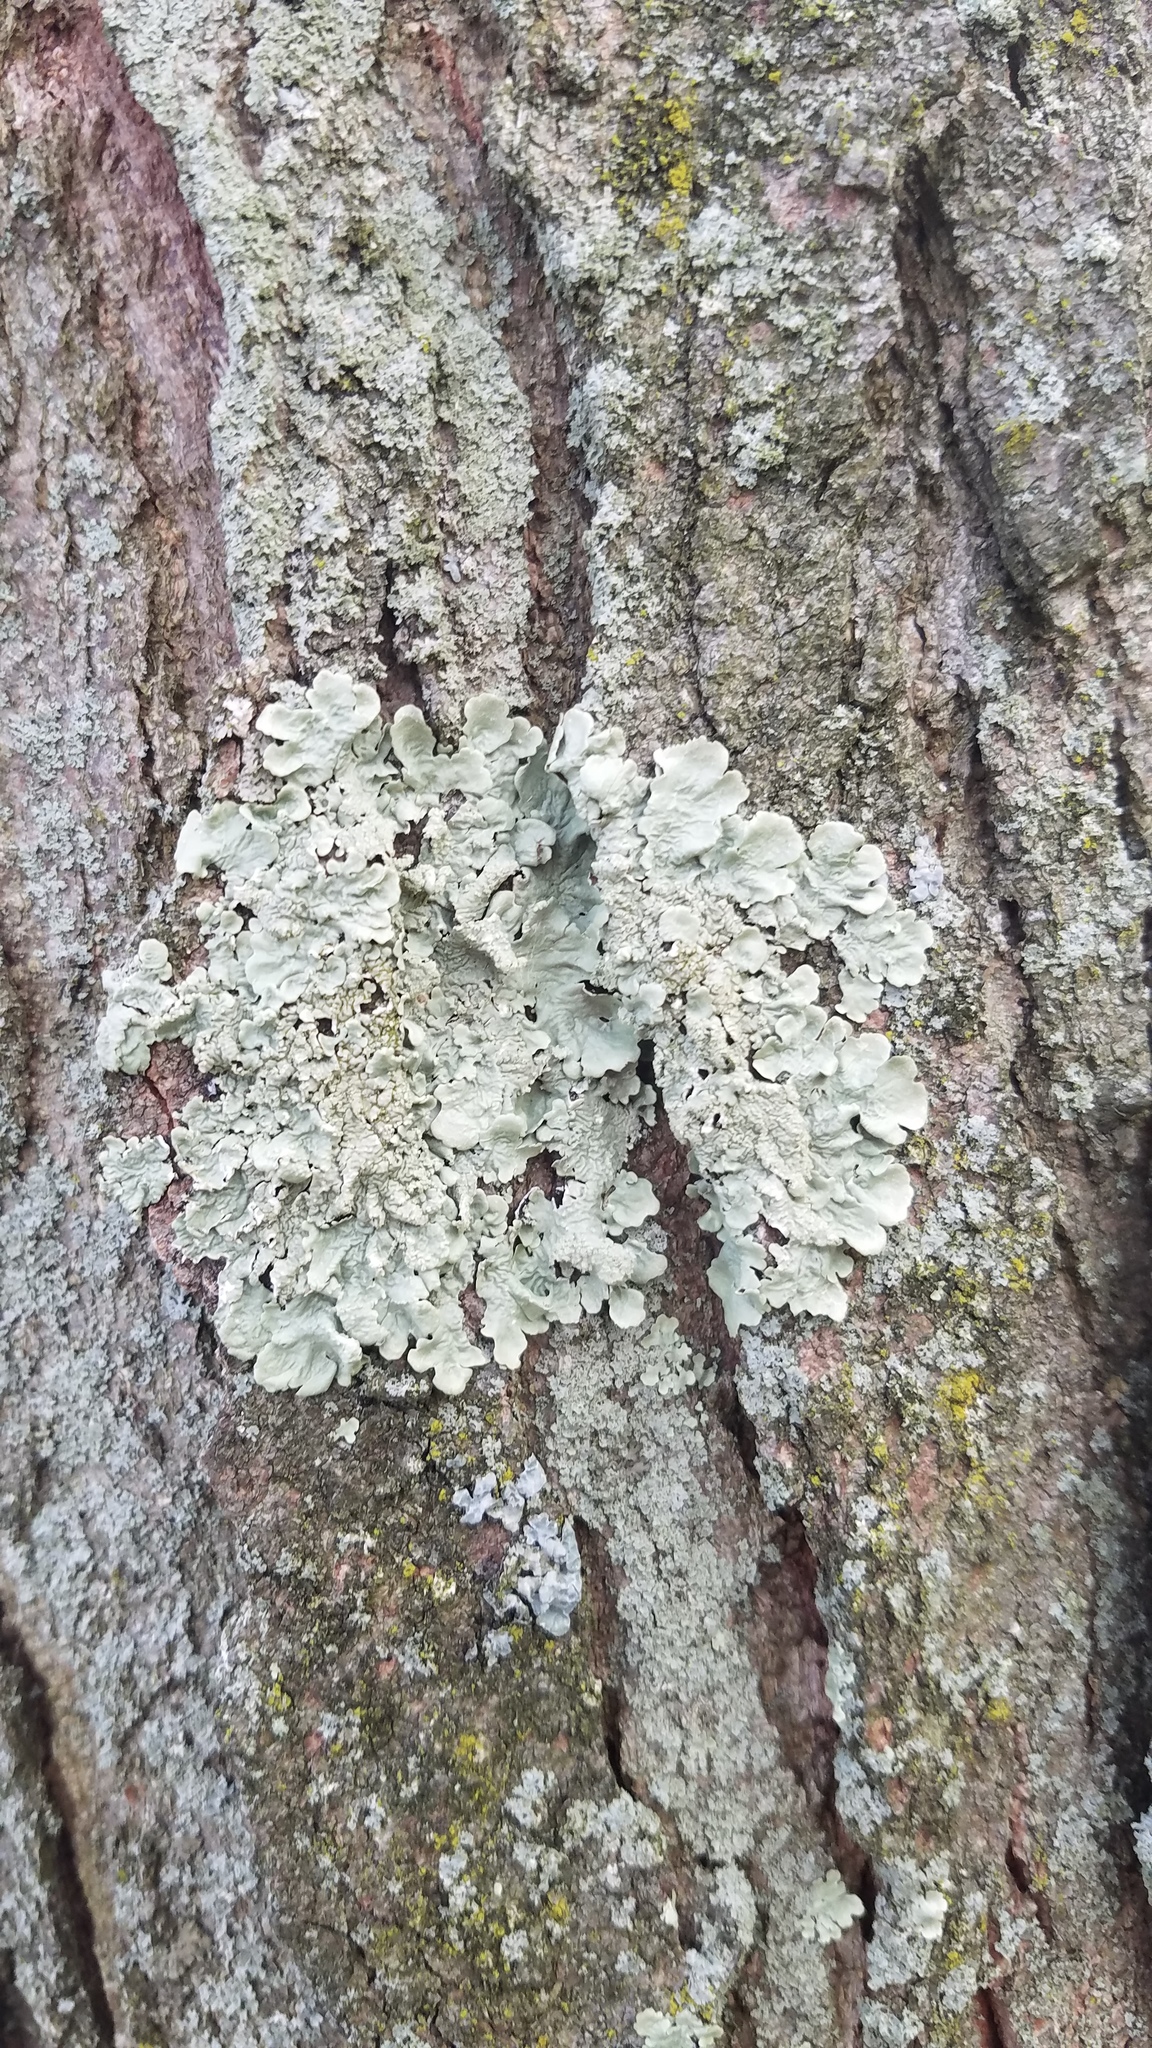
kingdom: Fungi
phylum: Ascomycota
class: Lecanoromycetes
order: Lecanorales
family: Parmeliaceae
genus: Flavoparmelia
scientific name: Flavoparmelia caperata
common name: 40-mile per hour lichen
